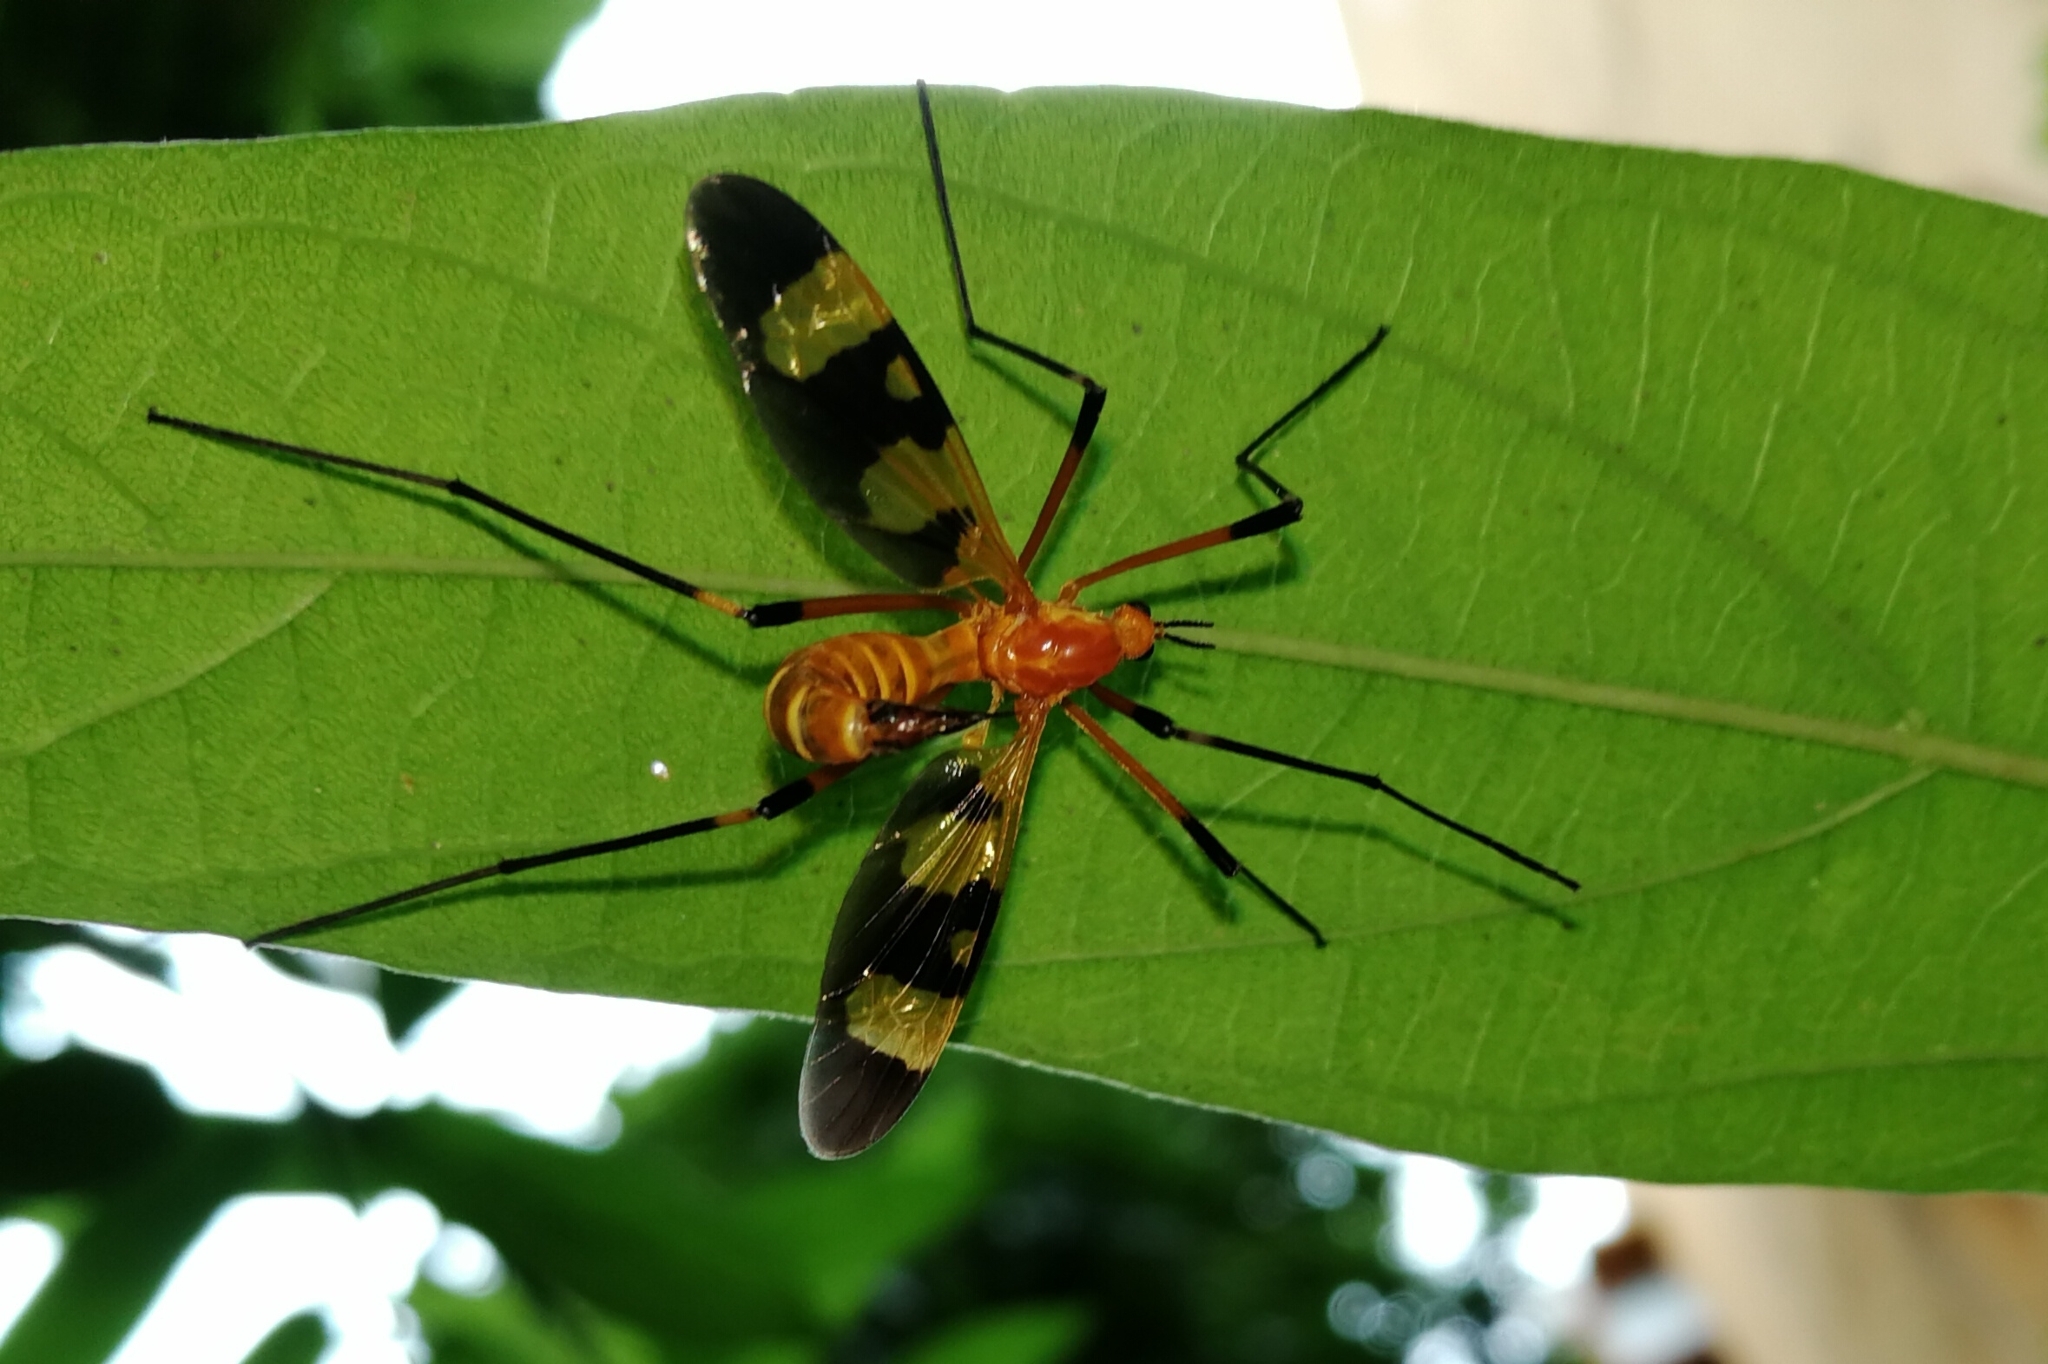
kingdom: Animalia
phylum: Arthropoda
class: Insecta
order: Diptera
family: Tipulidae
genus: Pselliophora
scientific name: Pselliophora laeta
